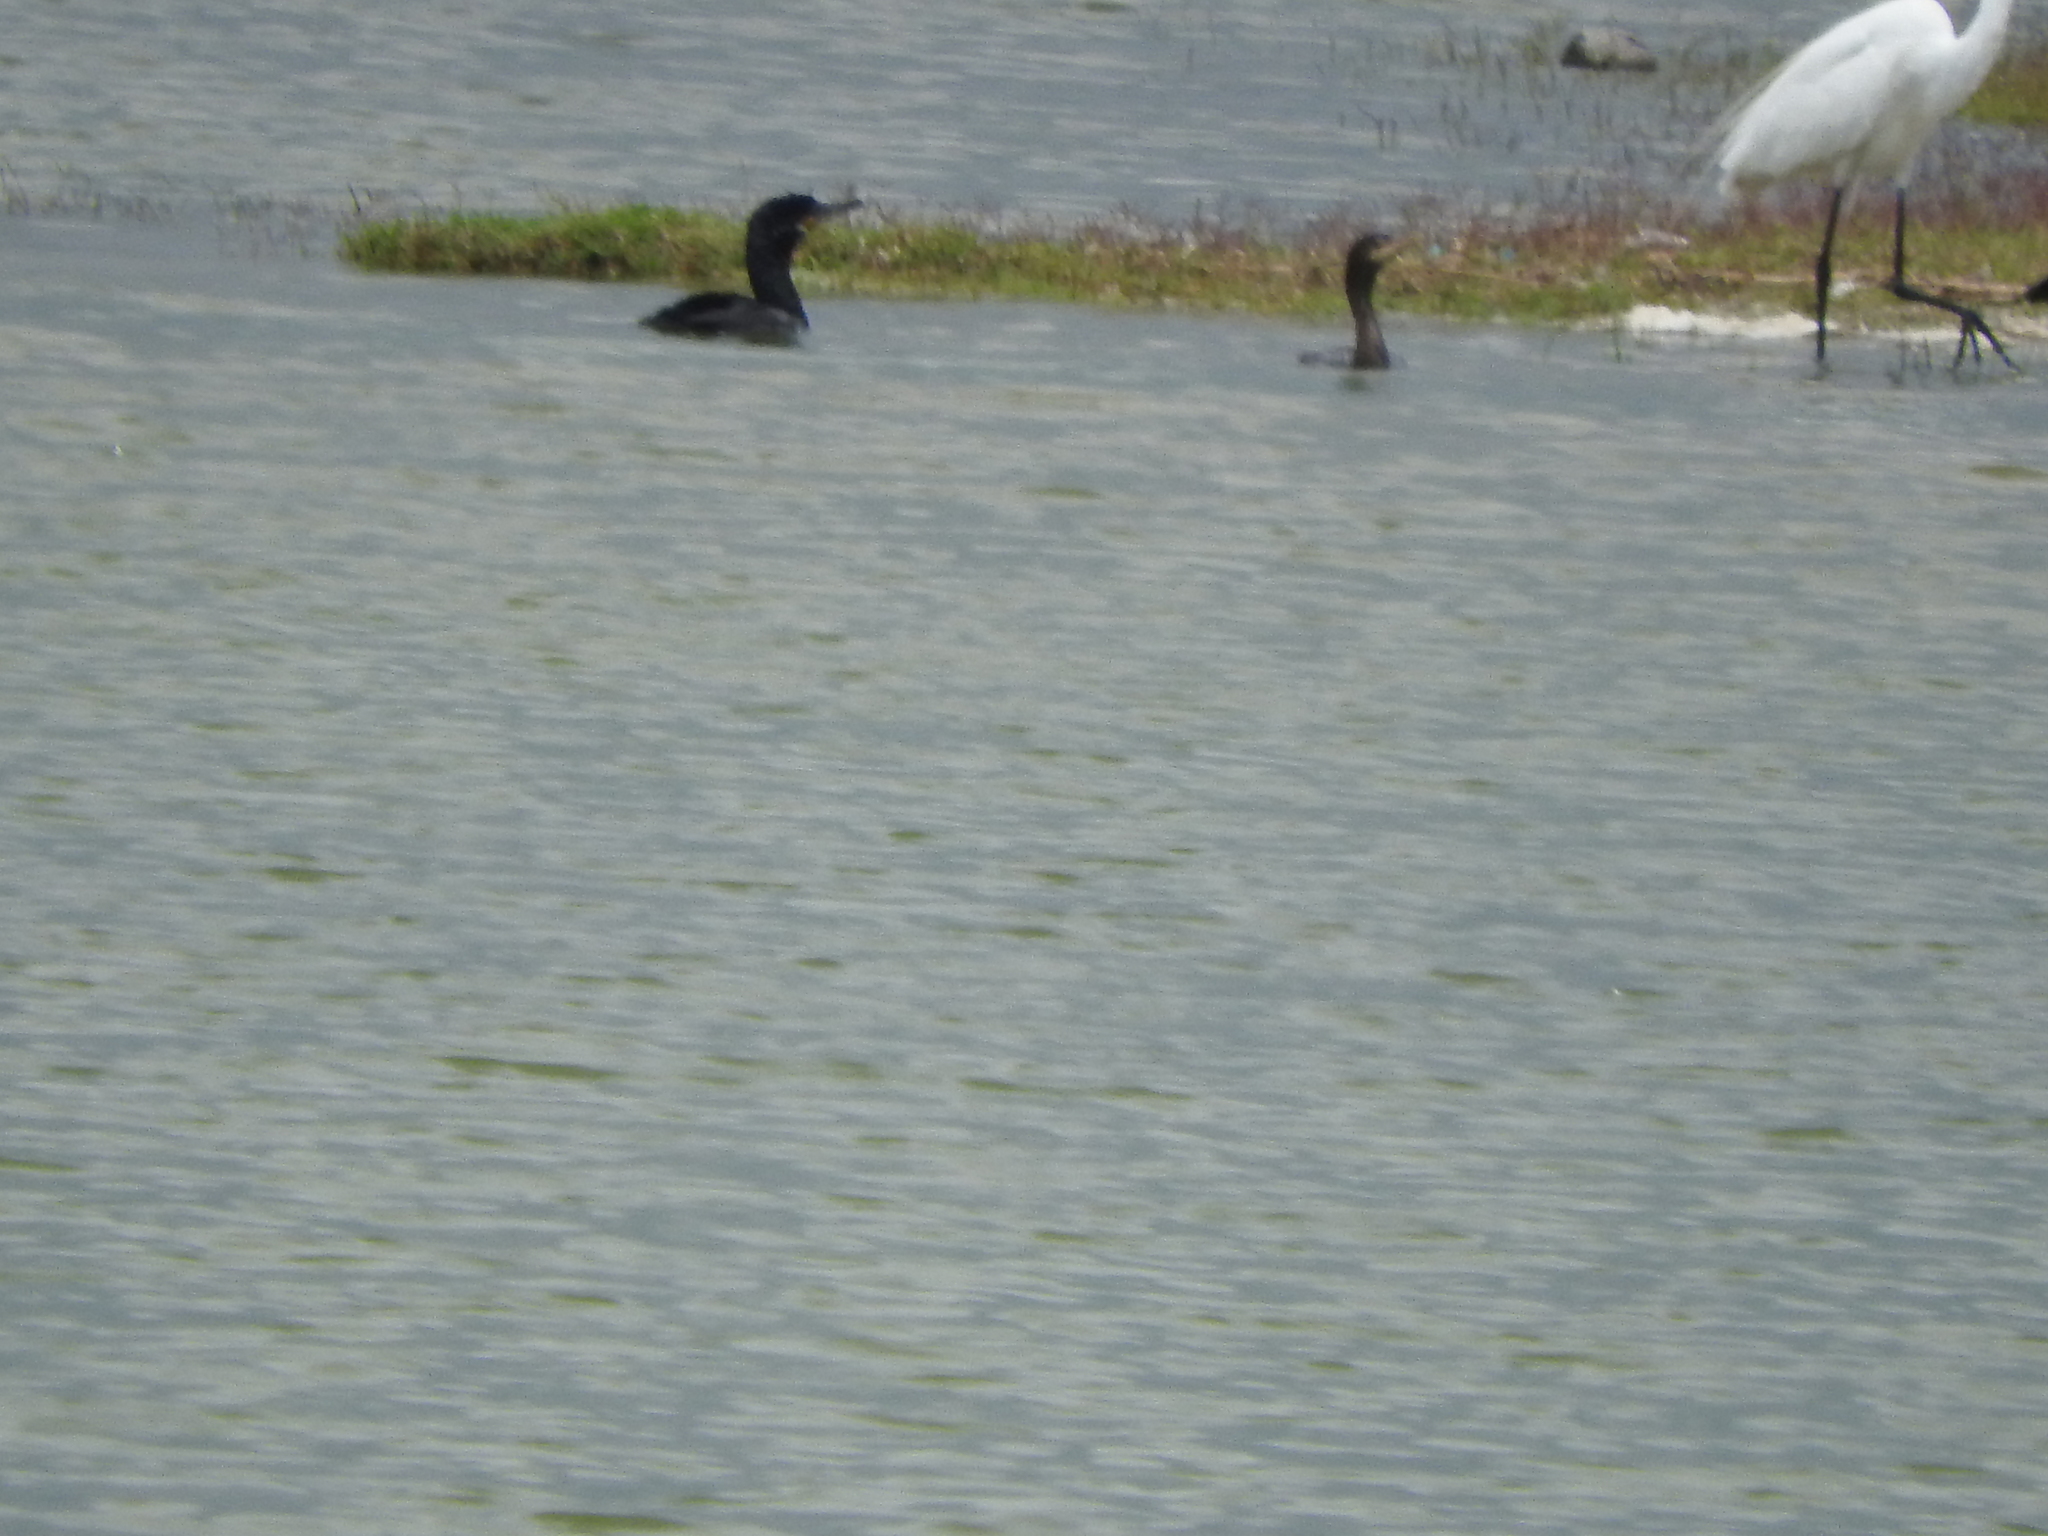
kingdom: Animalia
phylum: Chordata
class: Aves
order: Suliformes
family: Phalacrocoracidae
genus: Phalacrocorax
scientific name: Phalacrocorax brasilianus
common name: Neotropic cormorant
